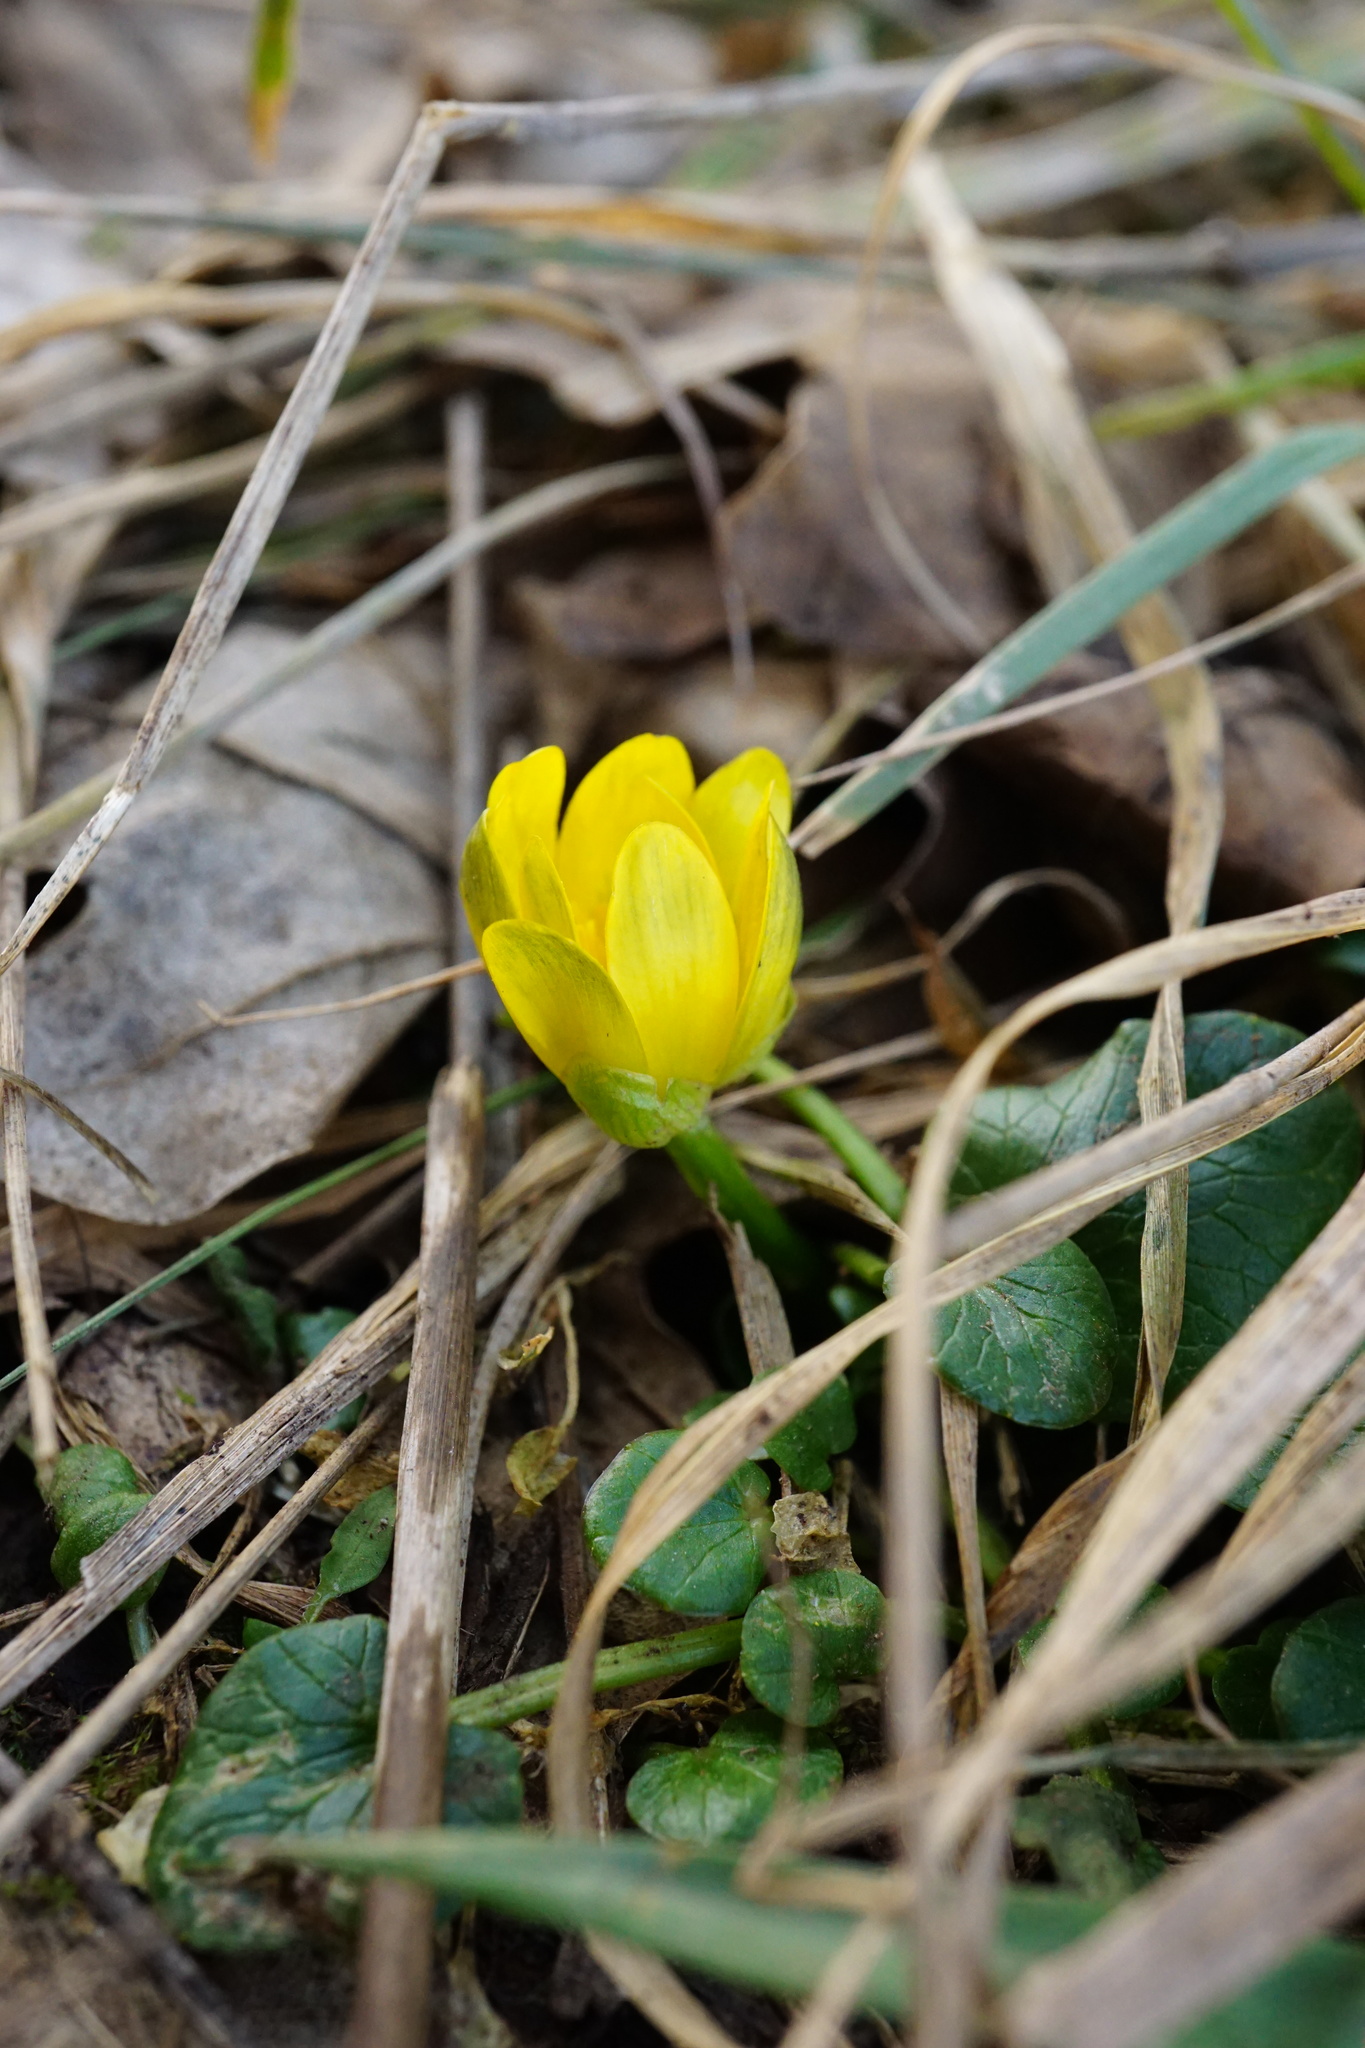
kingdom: Plantae
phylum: Tracheophyta
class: Magnoliopsida
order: Ranunculales
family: Ranunculaceae
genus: Ficaria
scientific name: Ficaria verna
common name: Lesser celandine
